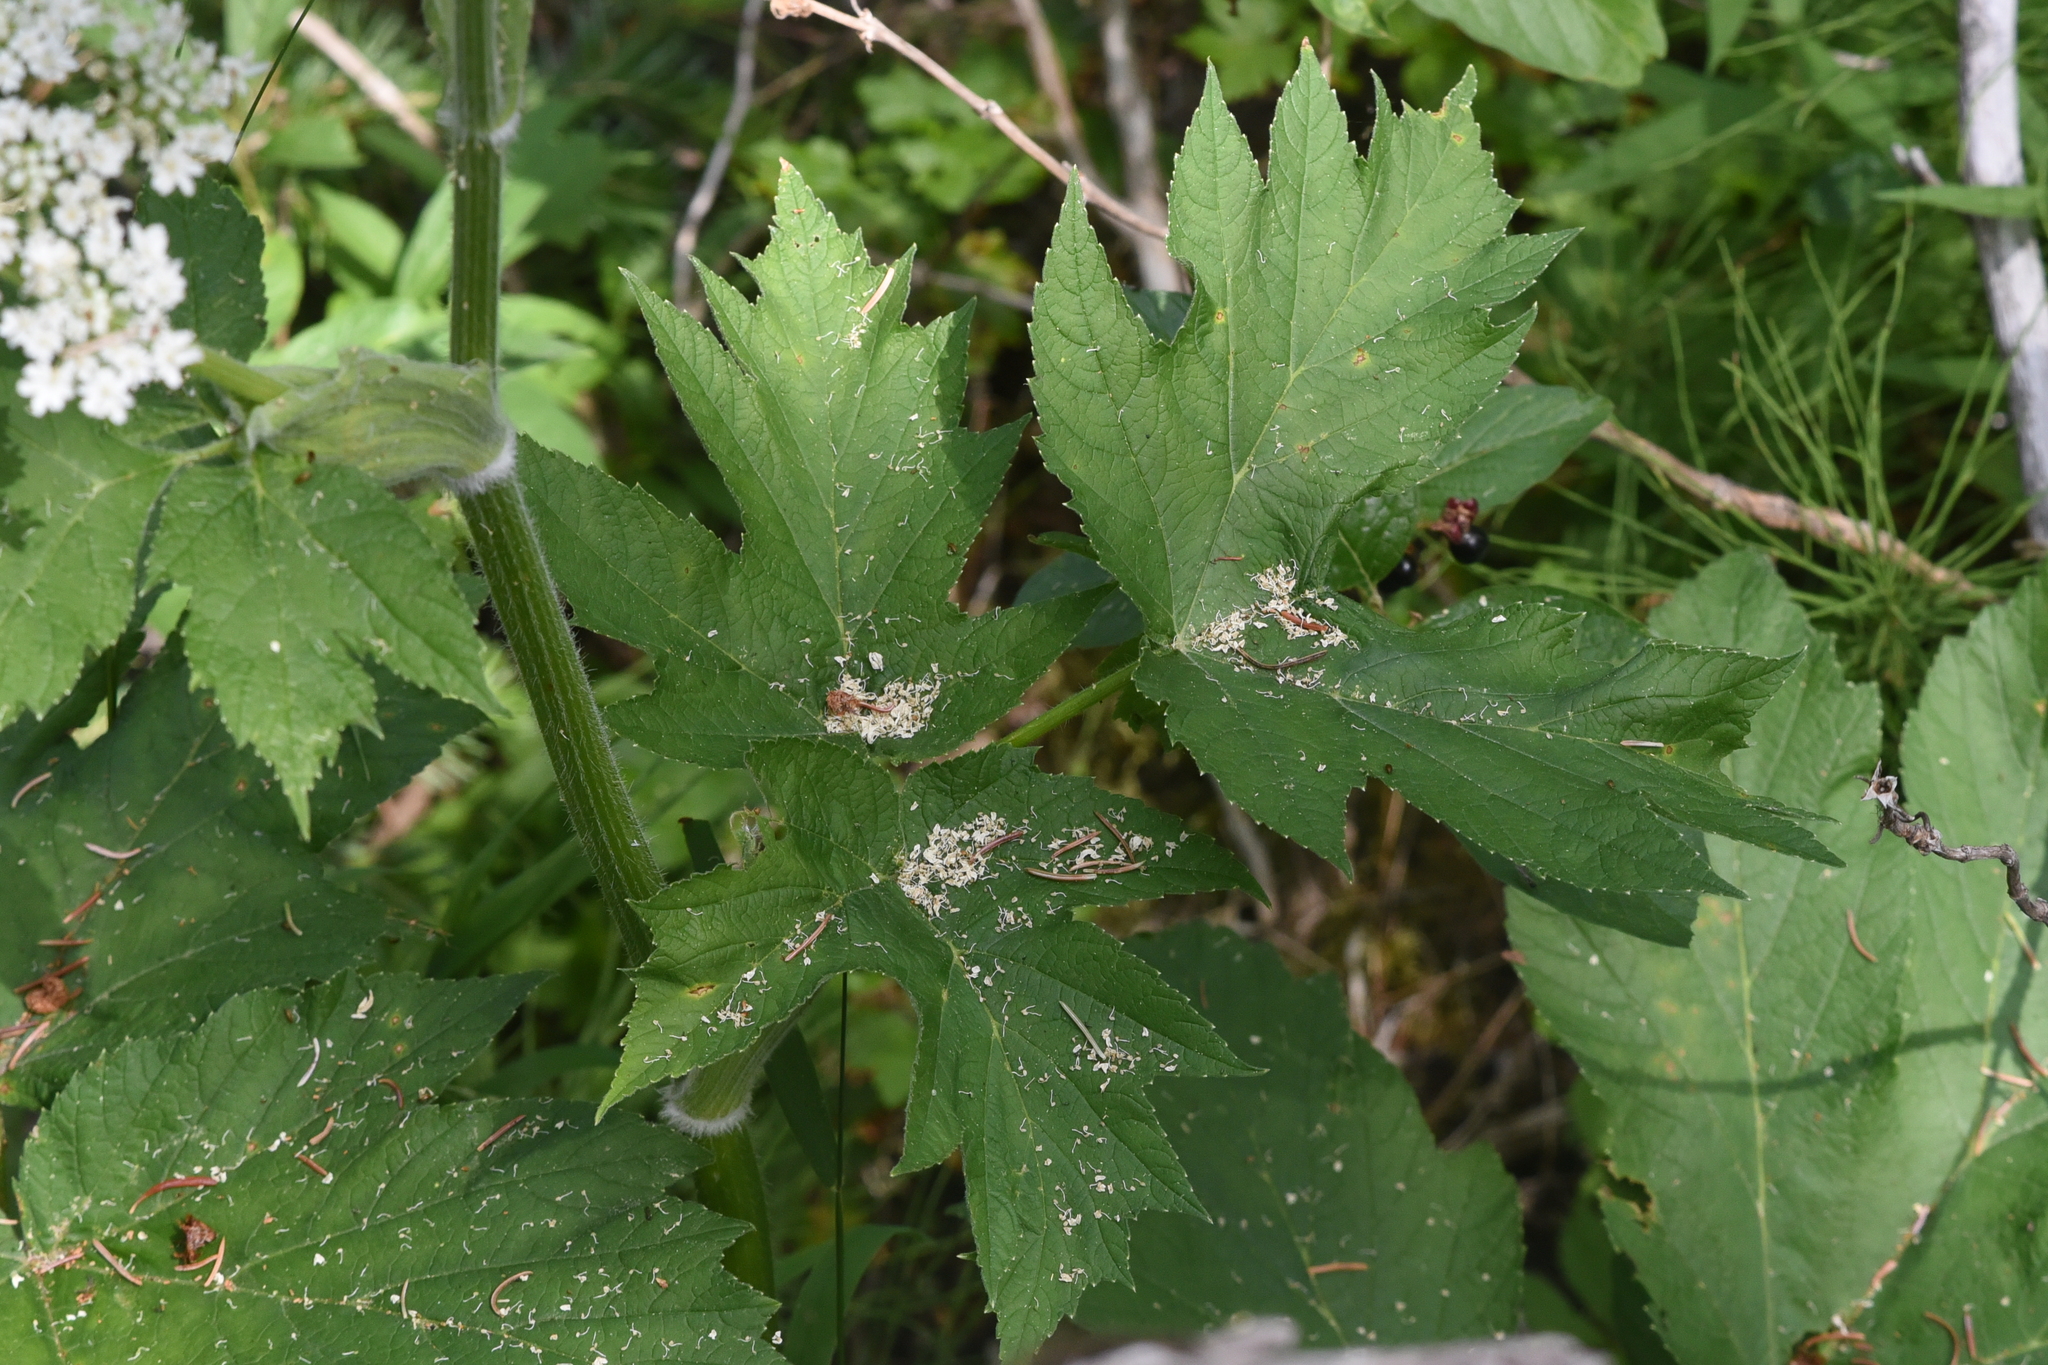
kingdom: Plantae
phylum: Tracheophyta
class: Magnoliopsida
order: Apiales
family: Apiaceae
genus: Heracleum
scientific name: Heracleum maximum
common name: American cow parsnip
